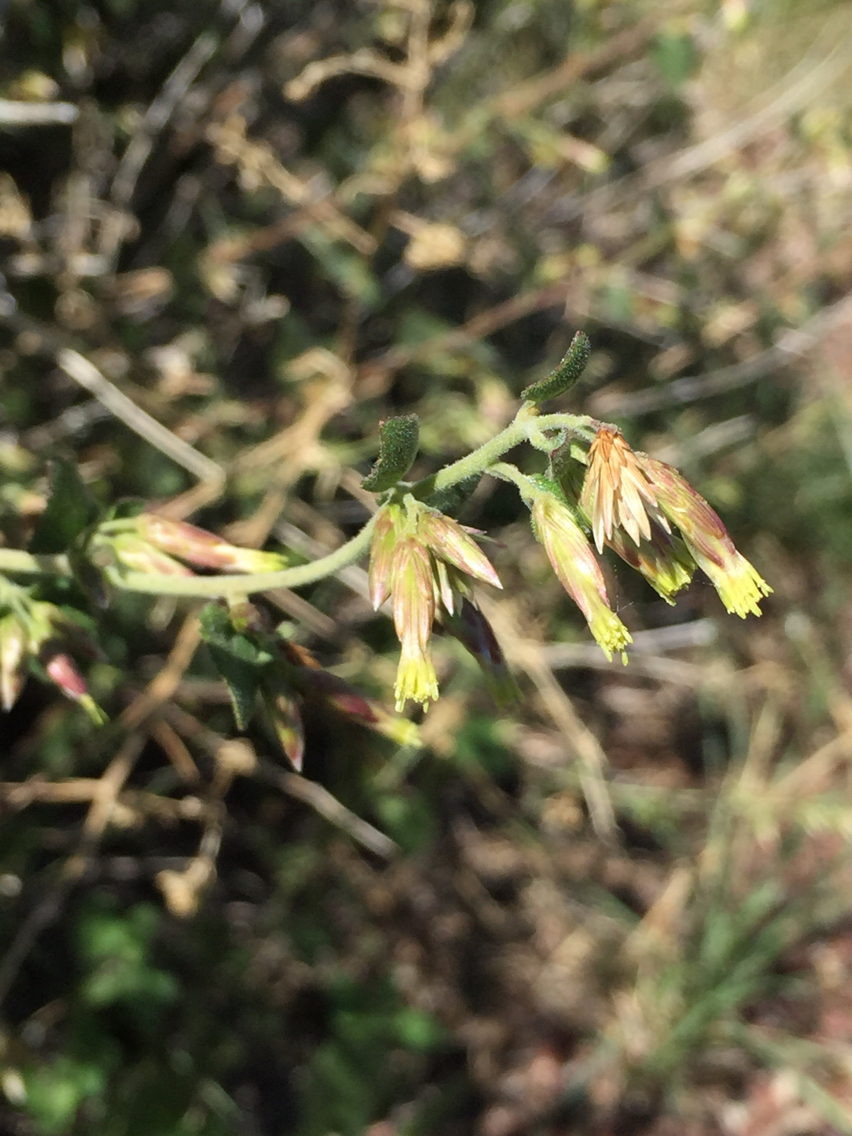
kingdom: Plantae
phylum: Tracheophyta
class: Magnoliopsida
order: Asterales
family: Asteraceae
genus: Brickellia
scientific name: Brickellia californica
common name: California brickellbush
